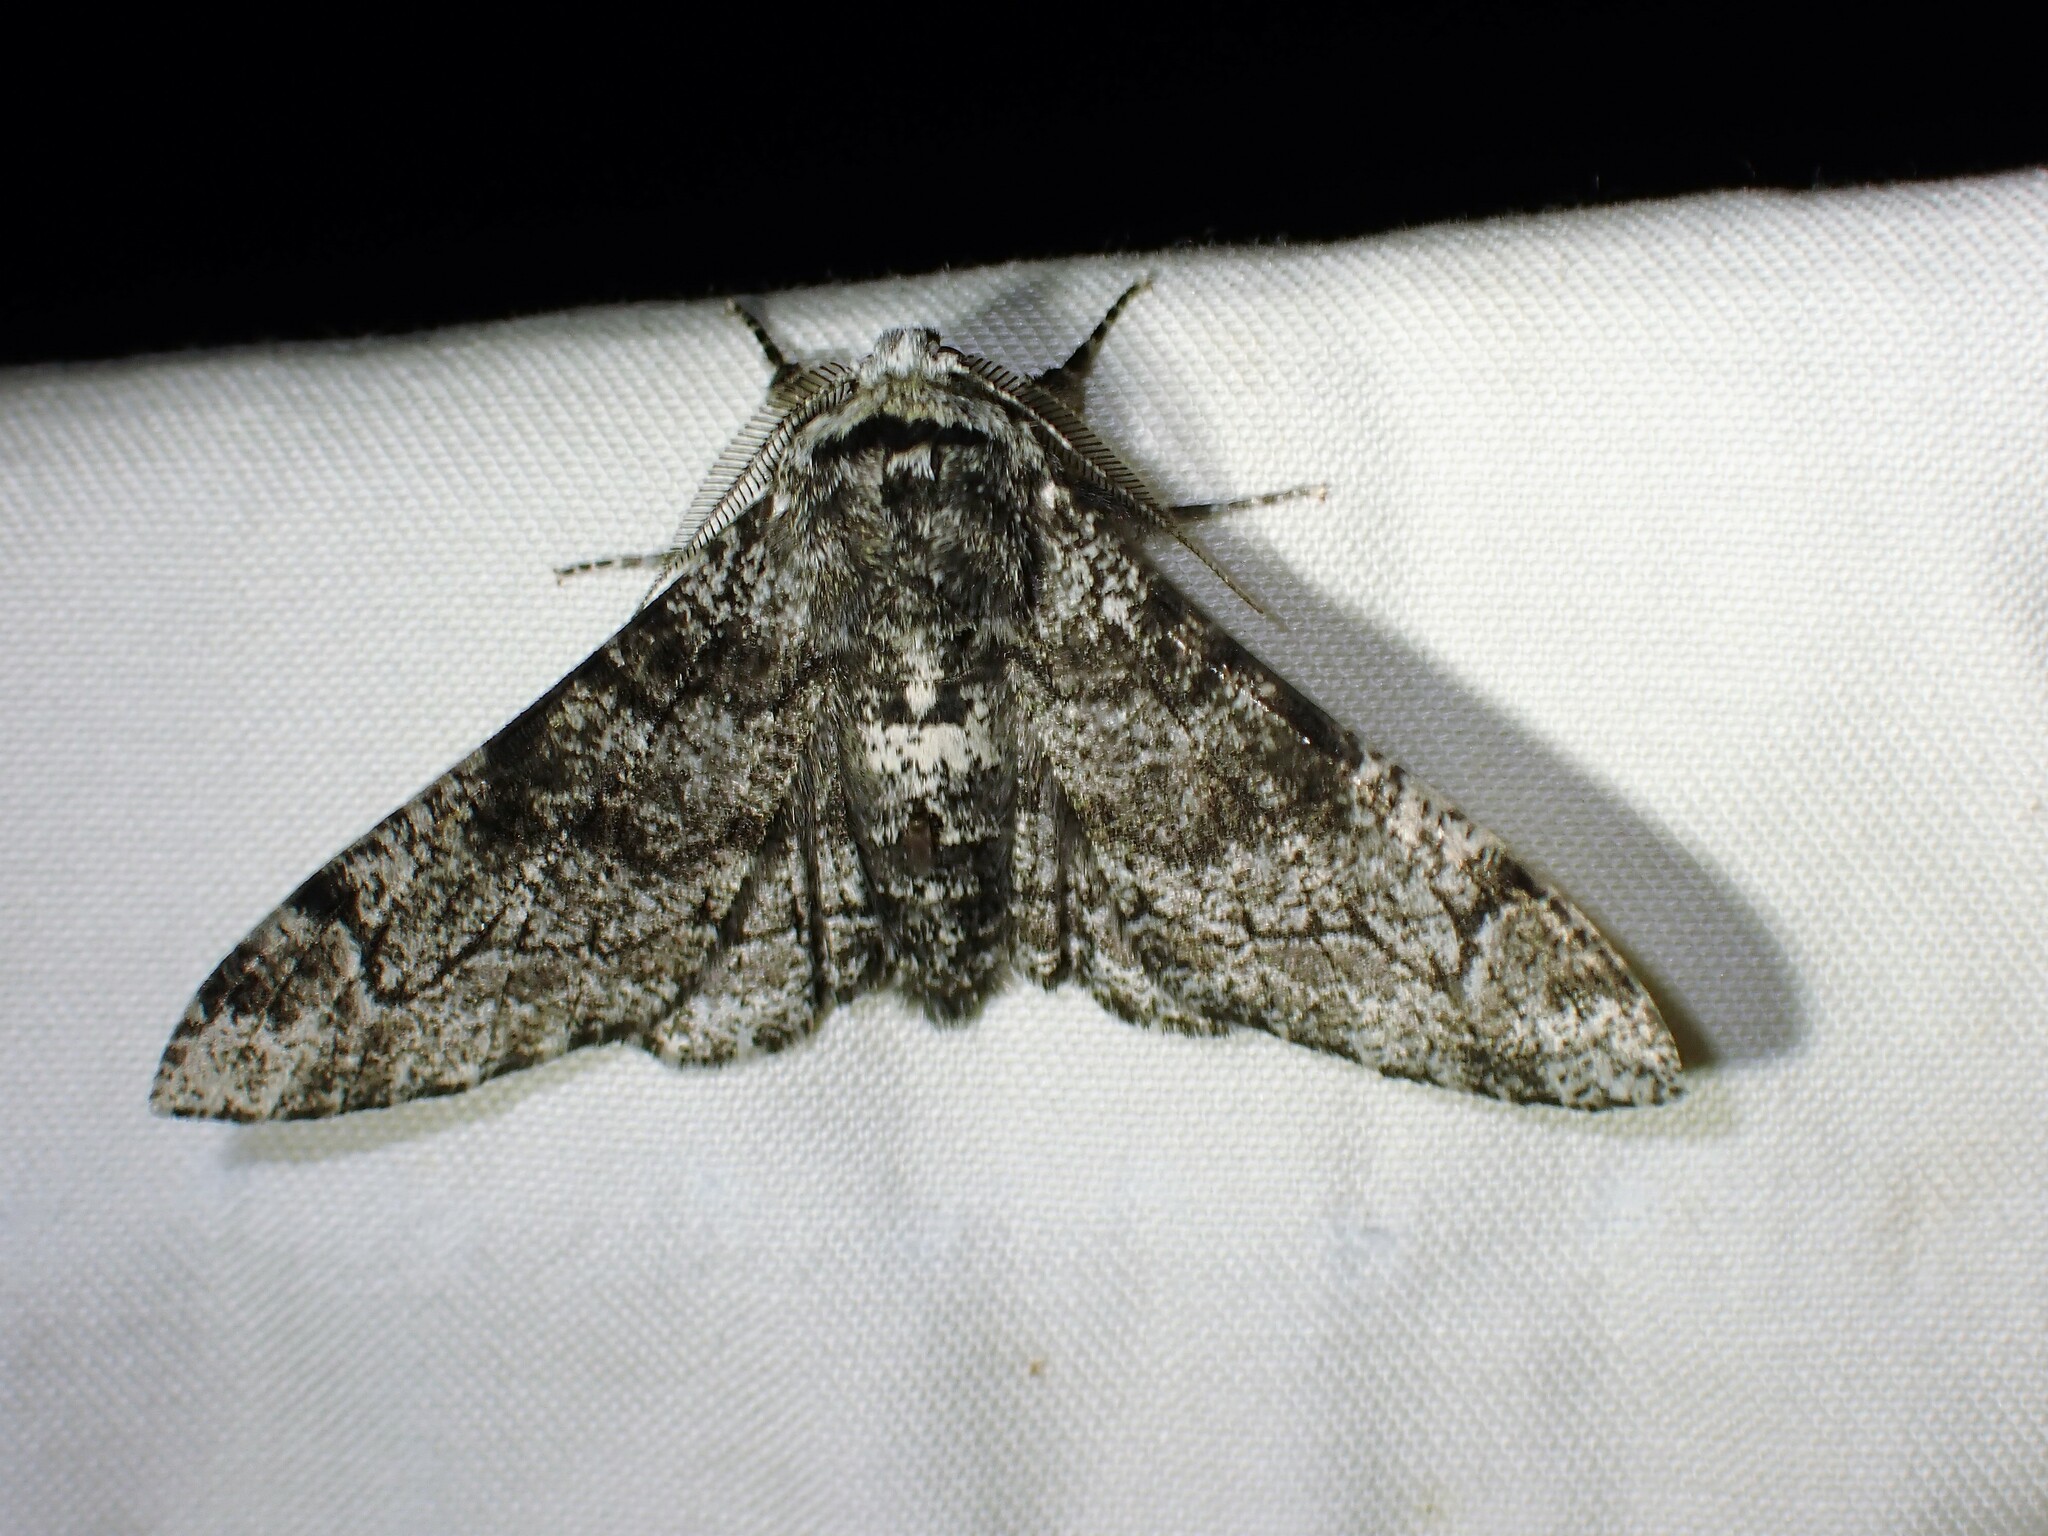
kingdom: Animalia
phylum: Arthropoda
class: Insecta
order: Lepidoptera
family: Geometridae
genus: Biston
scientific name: Biston betularia
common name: Peppered moth
